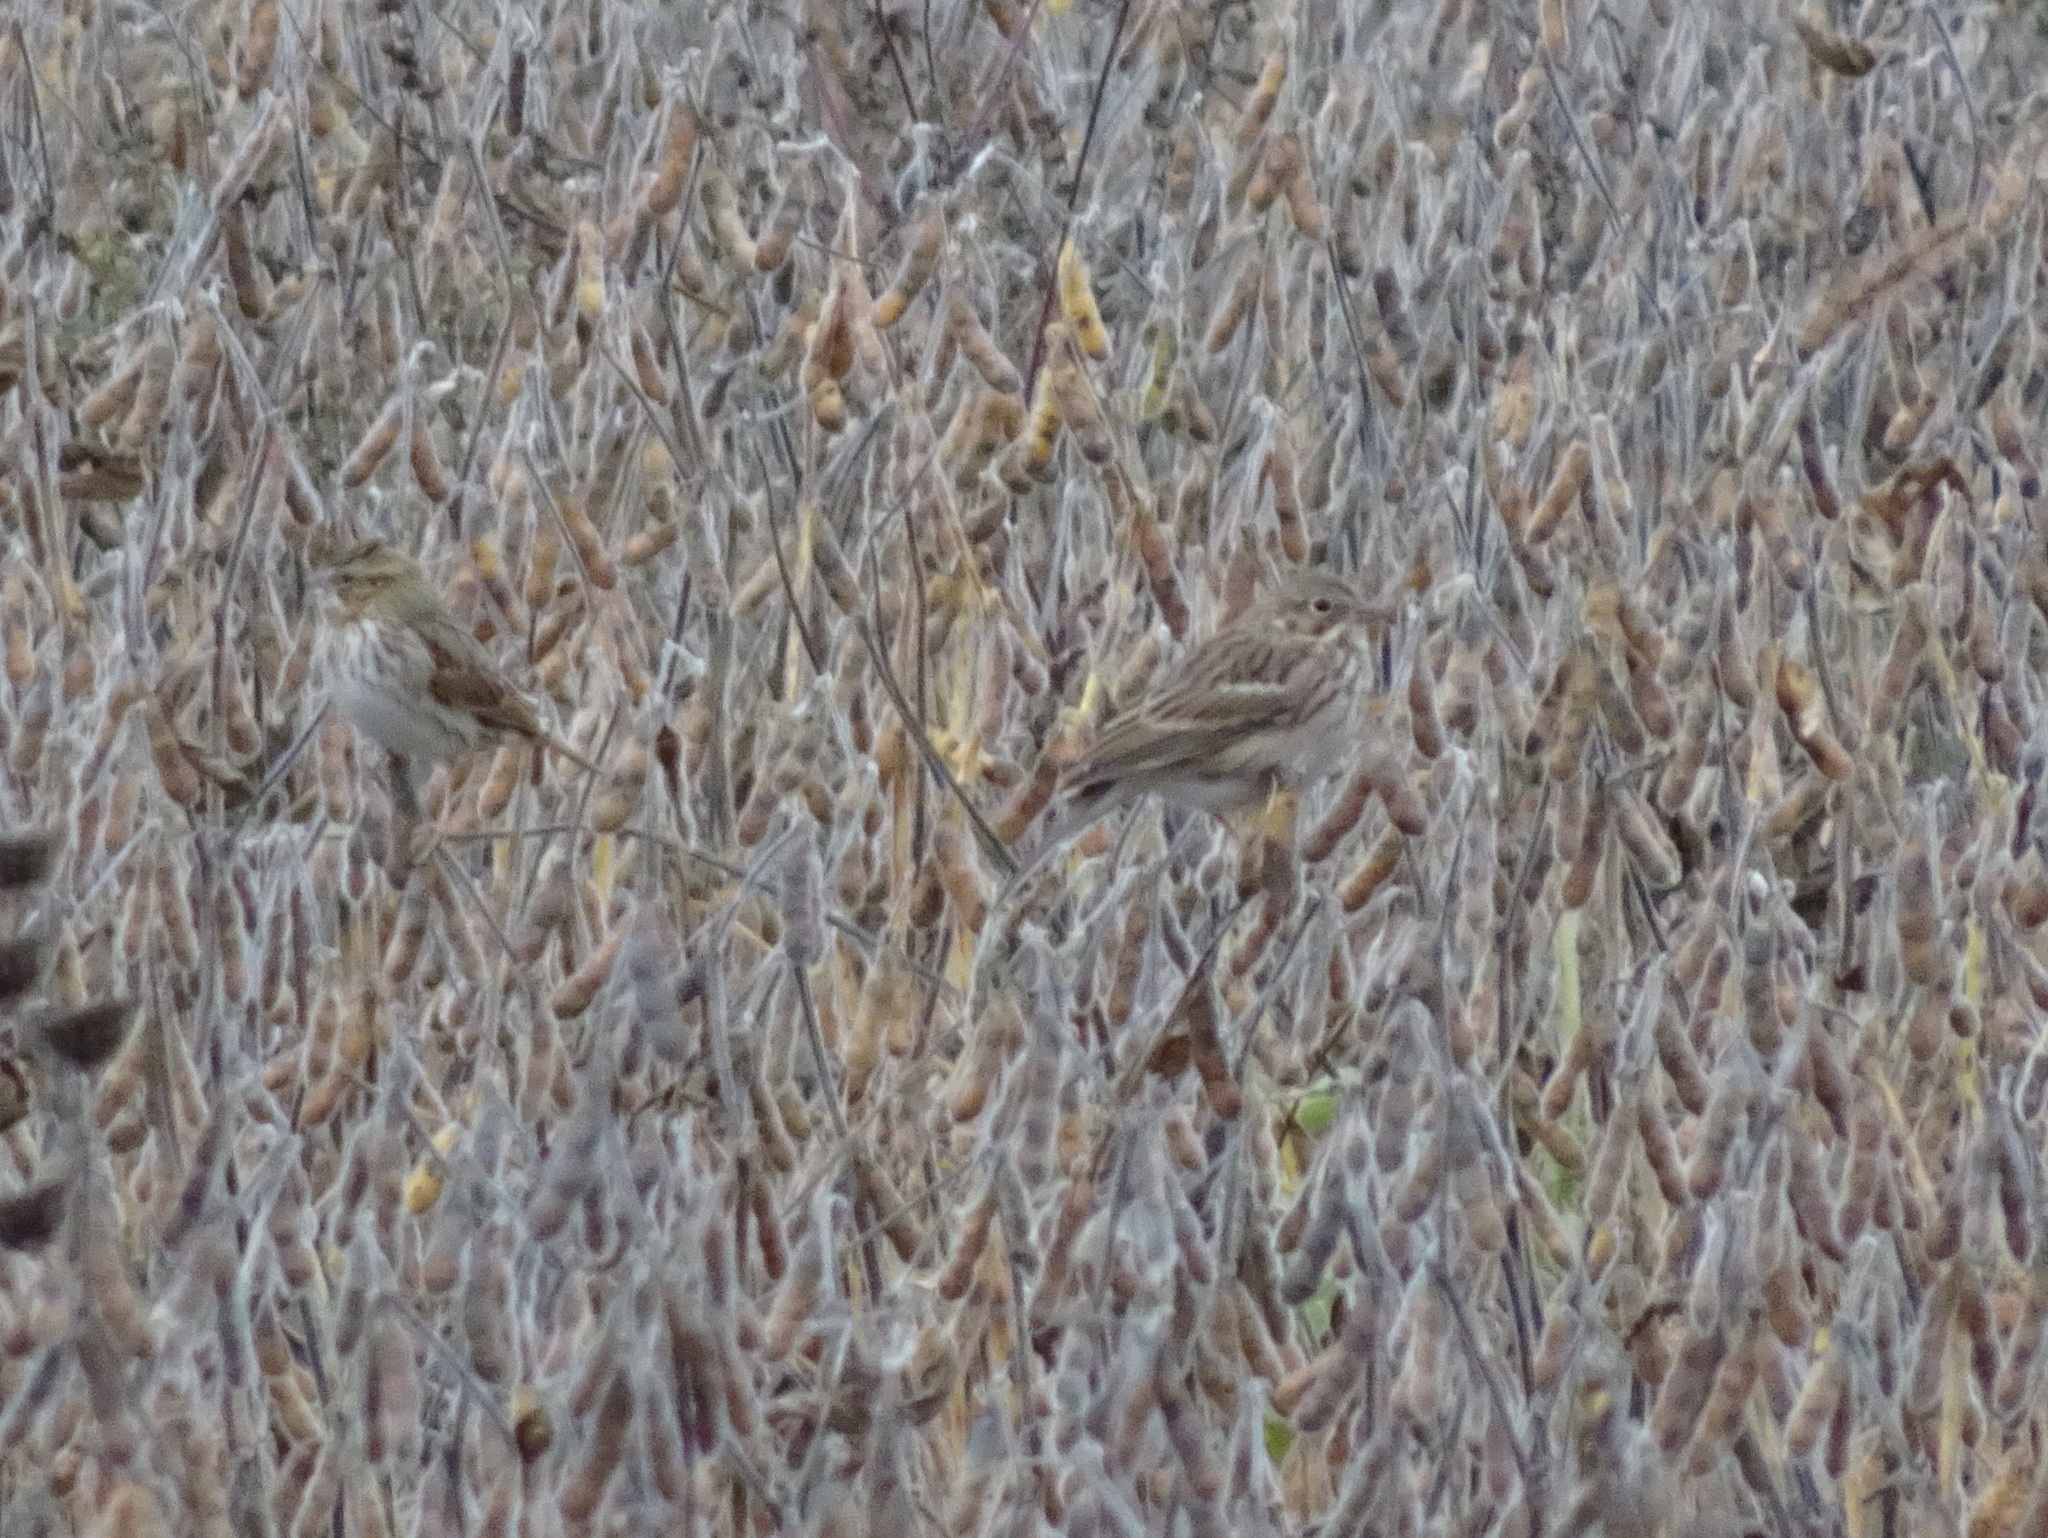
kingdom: Animalia
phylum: Chordata
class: Aves
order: Passeriformes
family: Passerellidae
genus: Pooecetes
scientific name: Pooecetes gramineus
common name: Vesper sparrow
